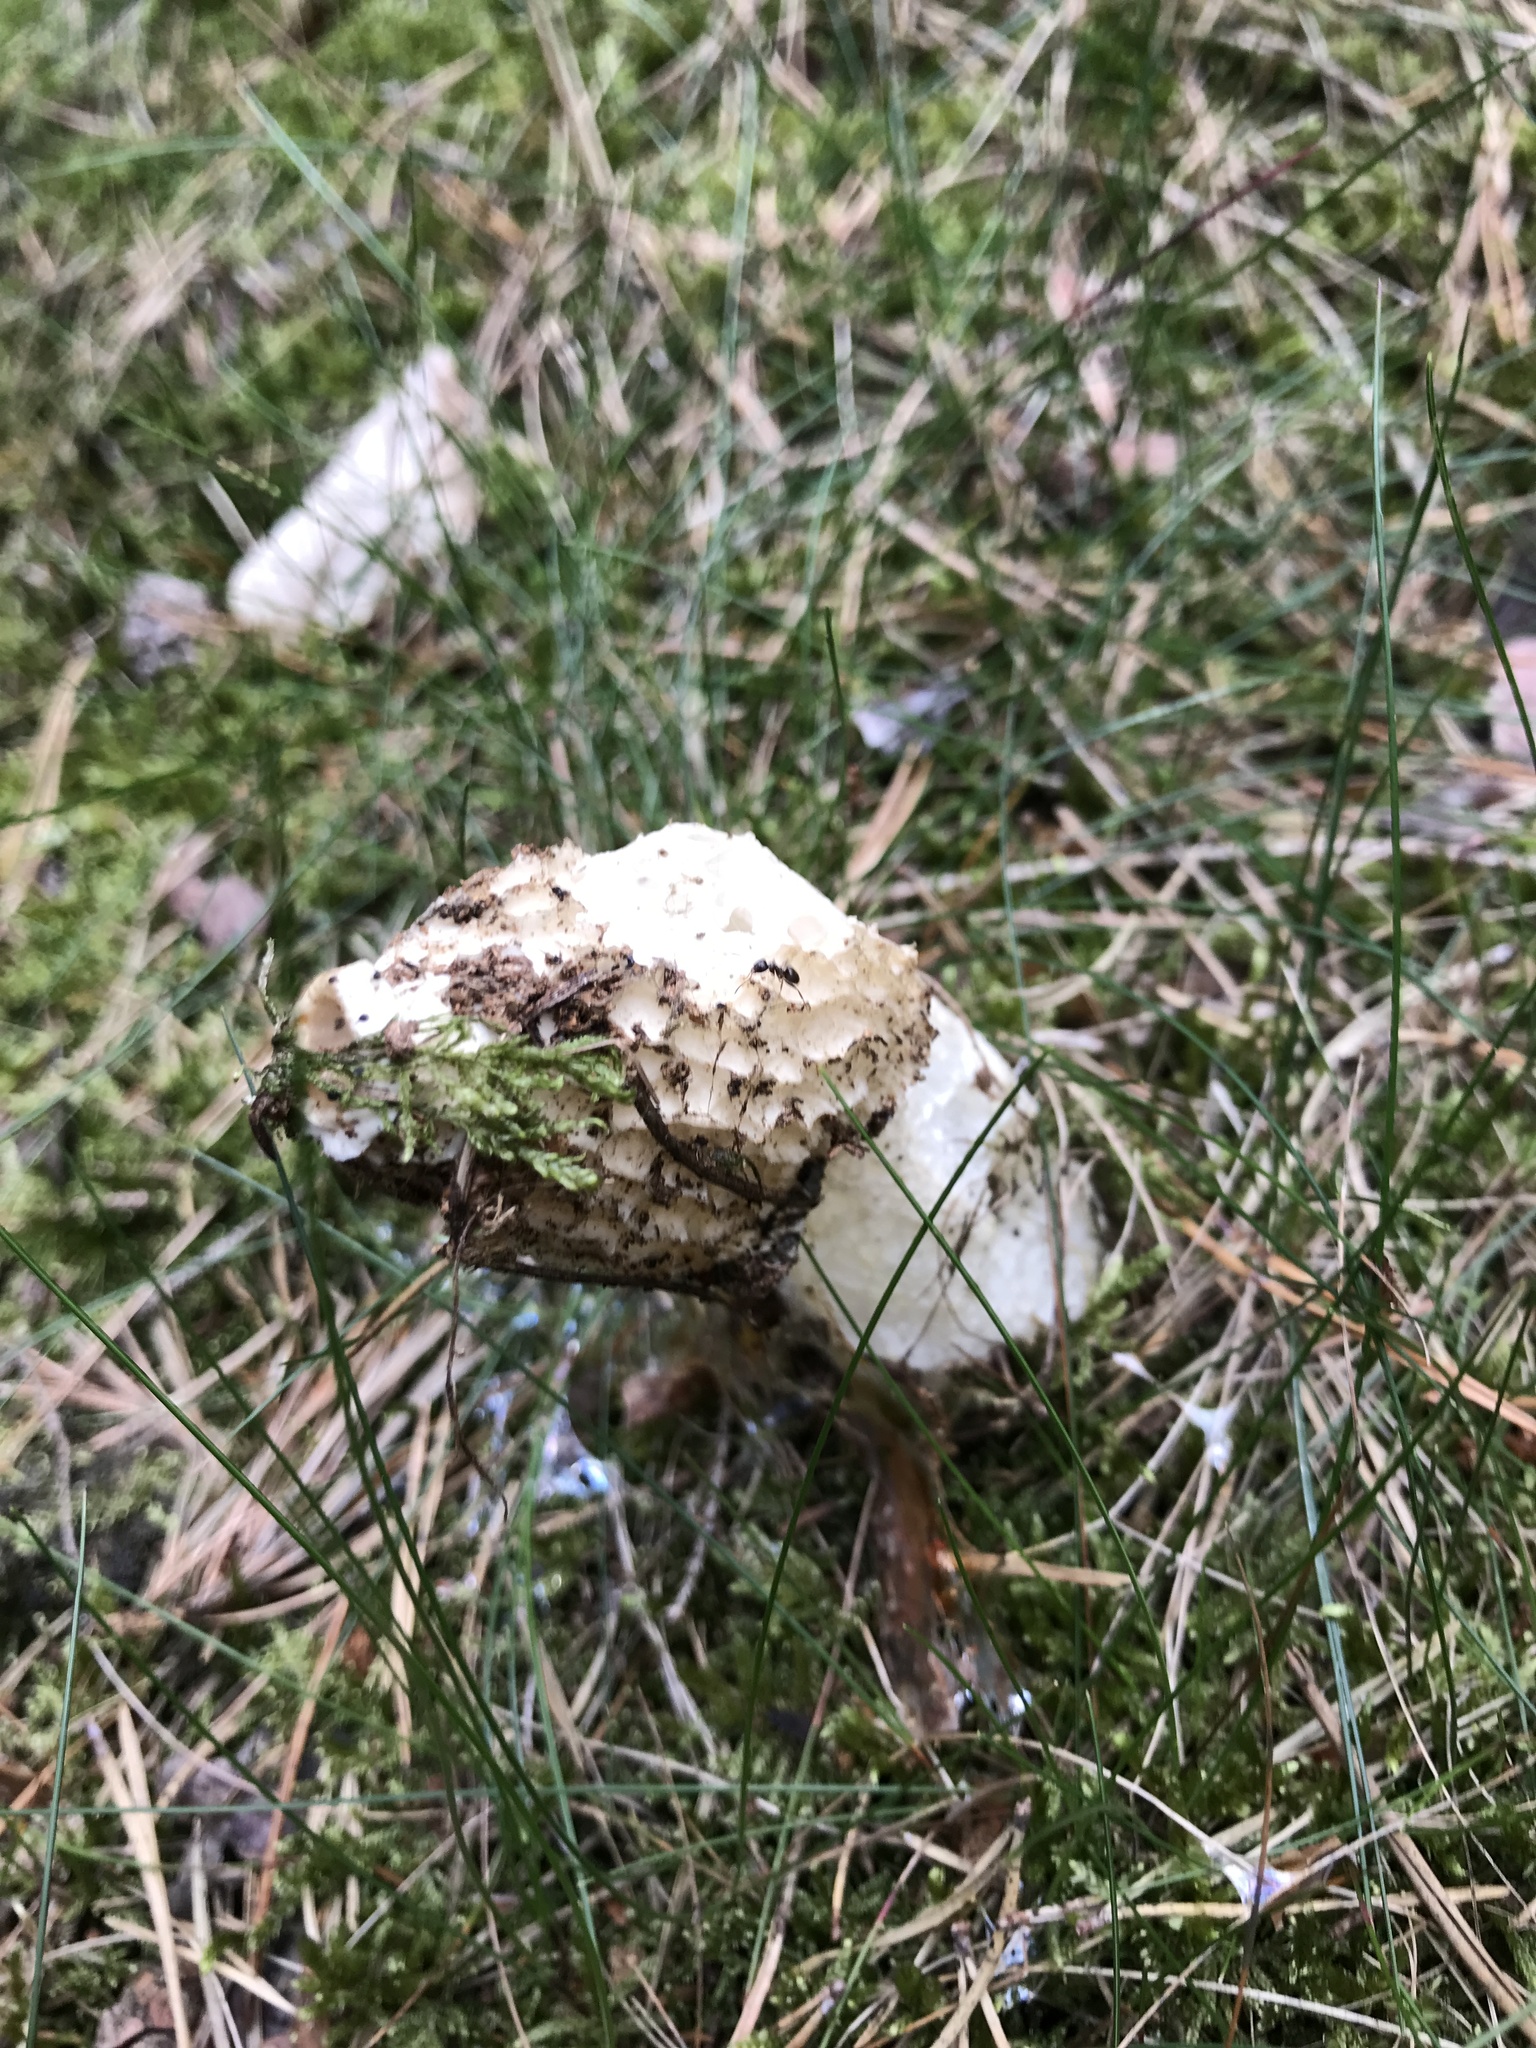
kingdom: Fungi
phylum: Basidiomycota
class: Agaricomycetes
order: Phallales
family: Phallaceae
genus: Phallus
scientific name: Phallus impudicus
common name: Common stinkhorn
